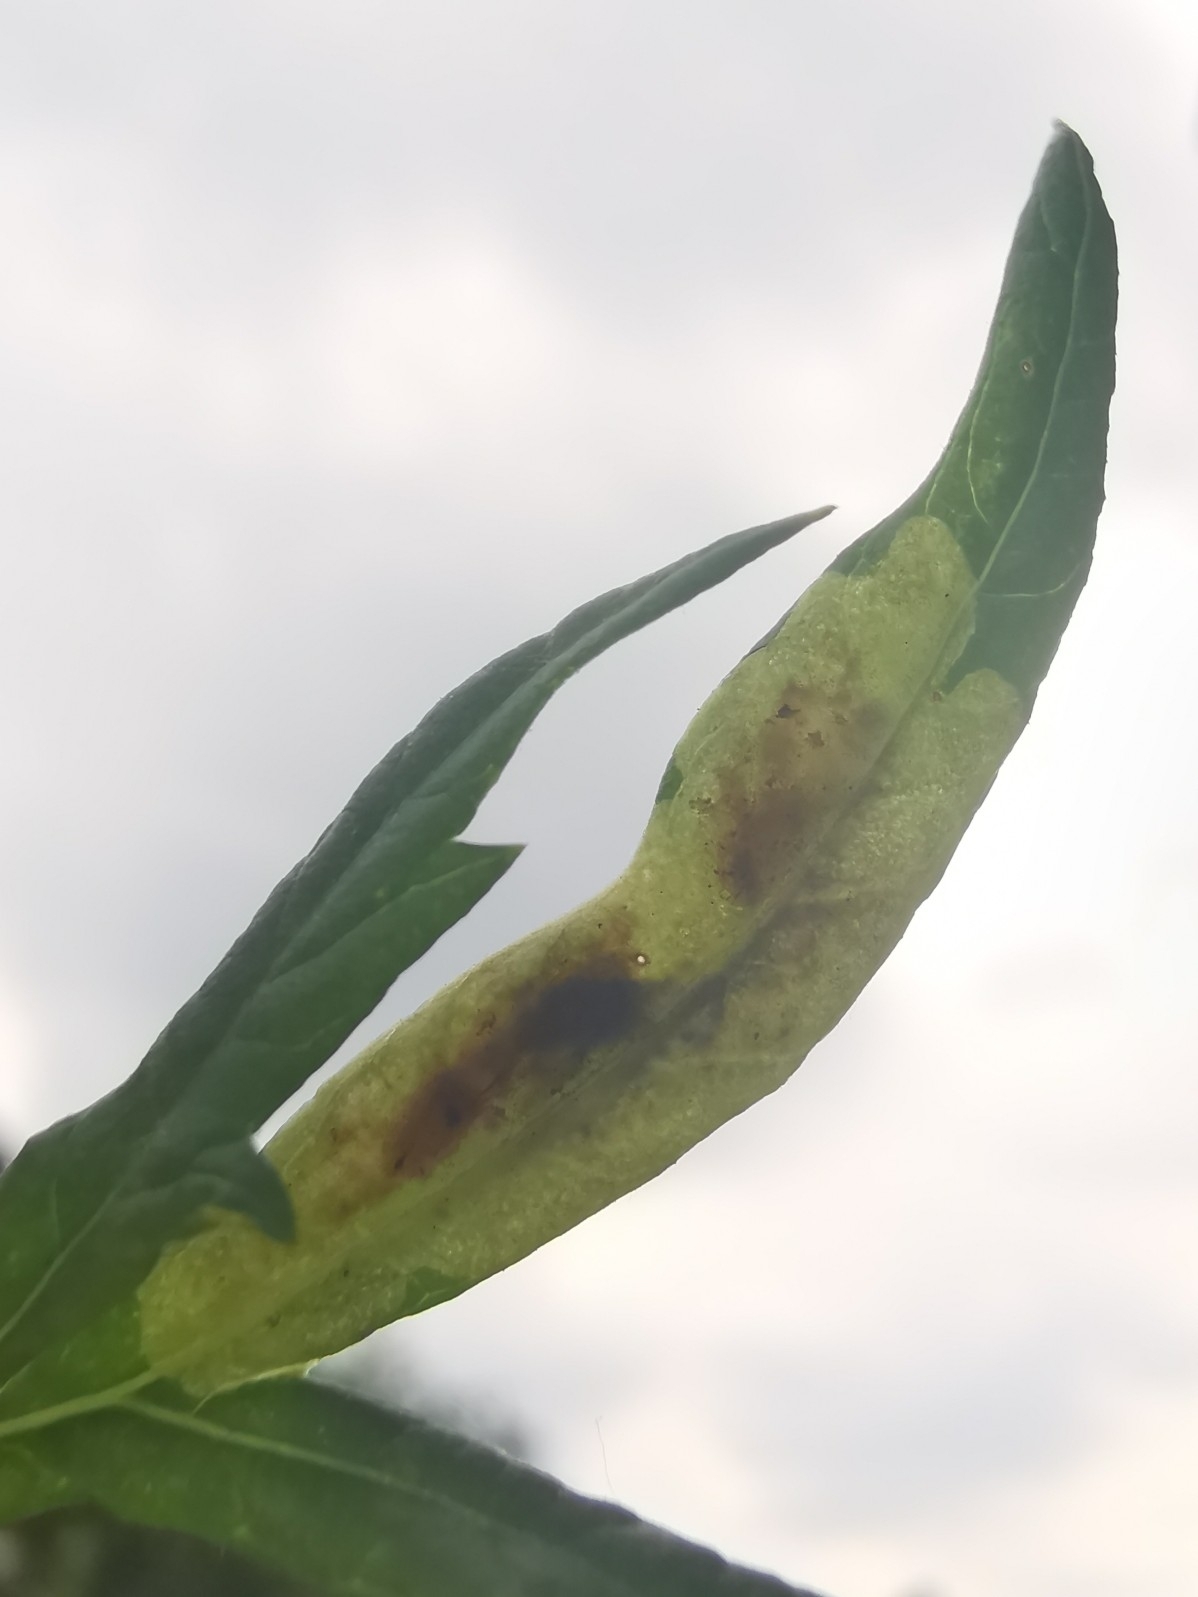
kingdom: Animalia
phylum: Arthropoda
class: Insecta
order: Diptera
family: Agromyzidae
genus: Calycomyza
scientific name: Calycomyza artemisiae
